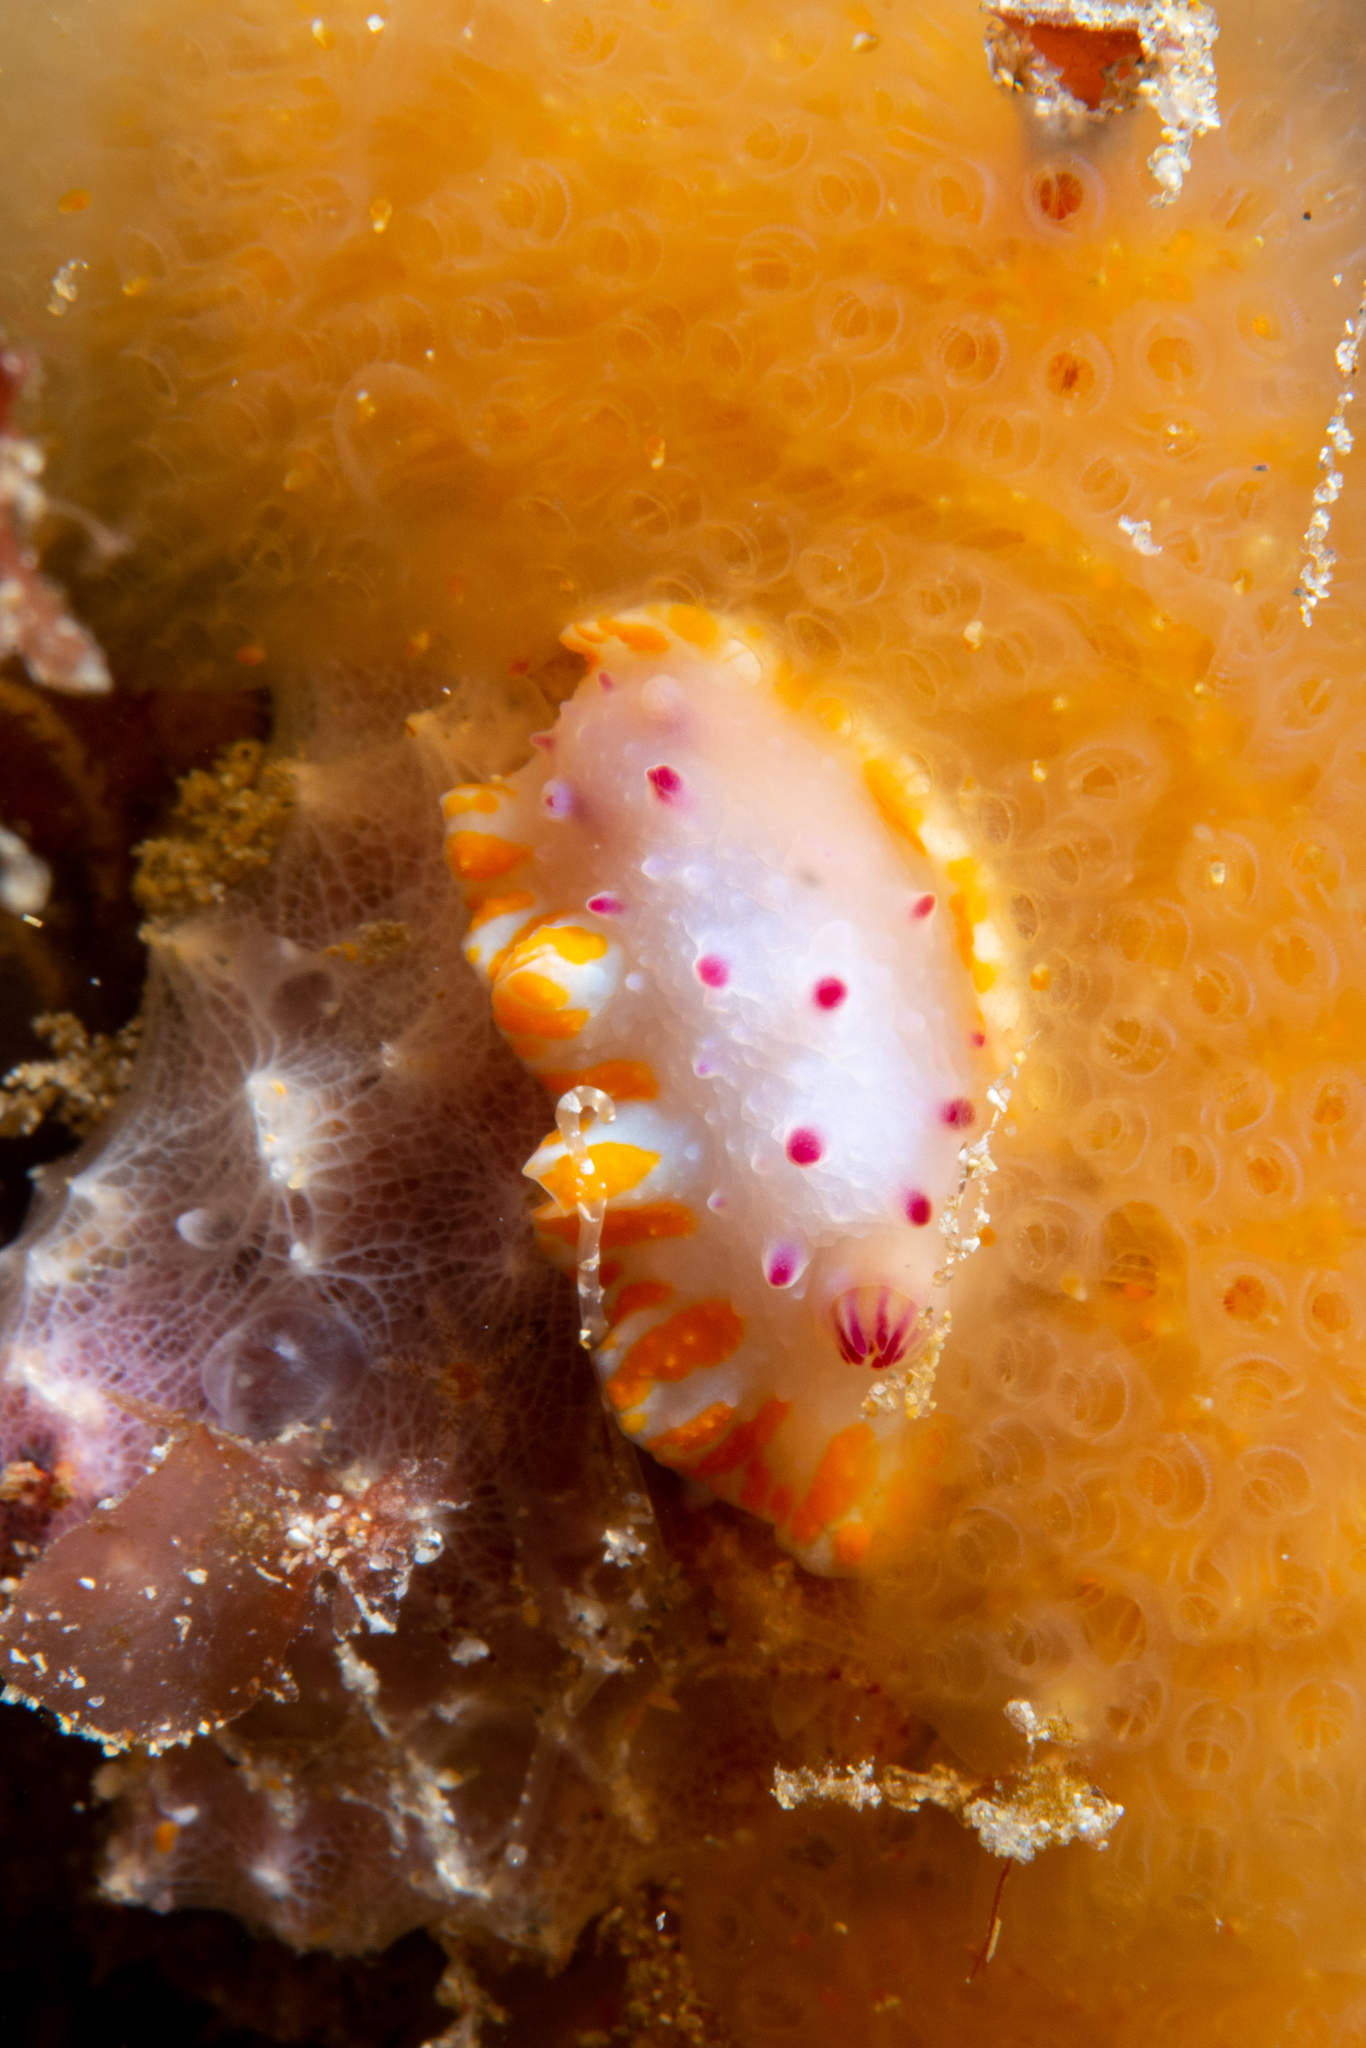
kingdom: Animalia
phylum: Mollusca
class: Gastropoda
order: Nudibranchia
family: Chromodorididae
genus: Mexichromis
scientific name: Mexichromis macropus
